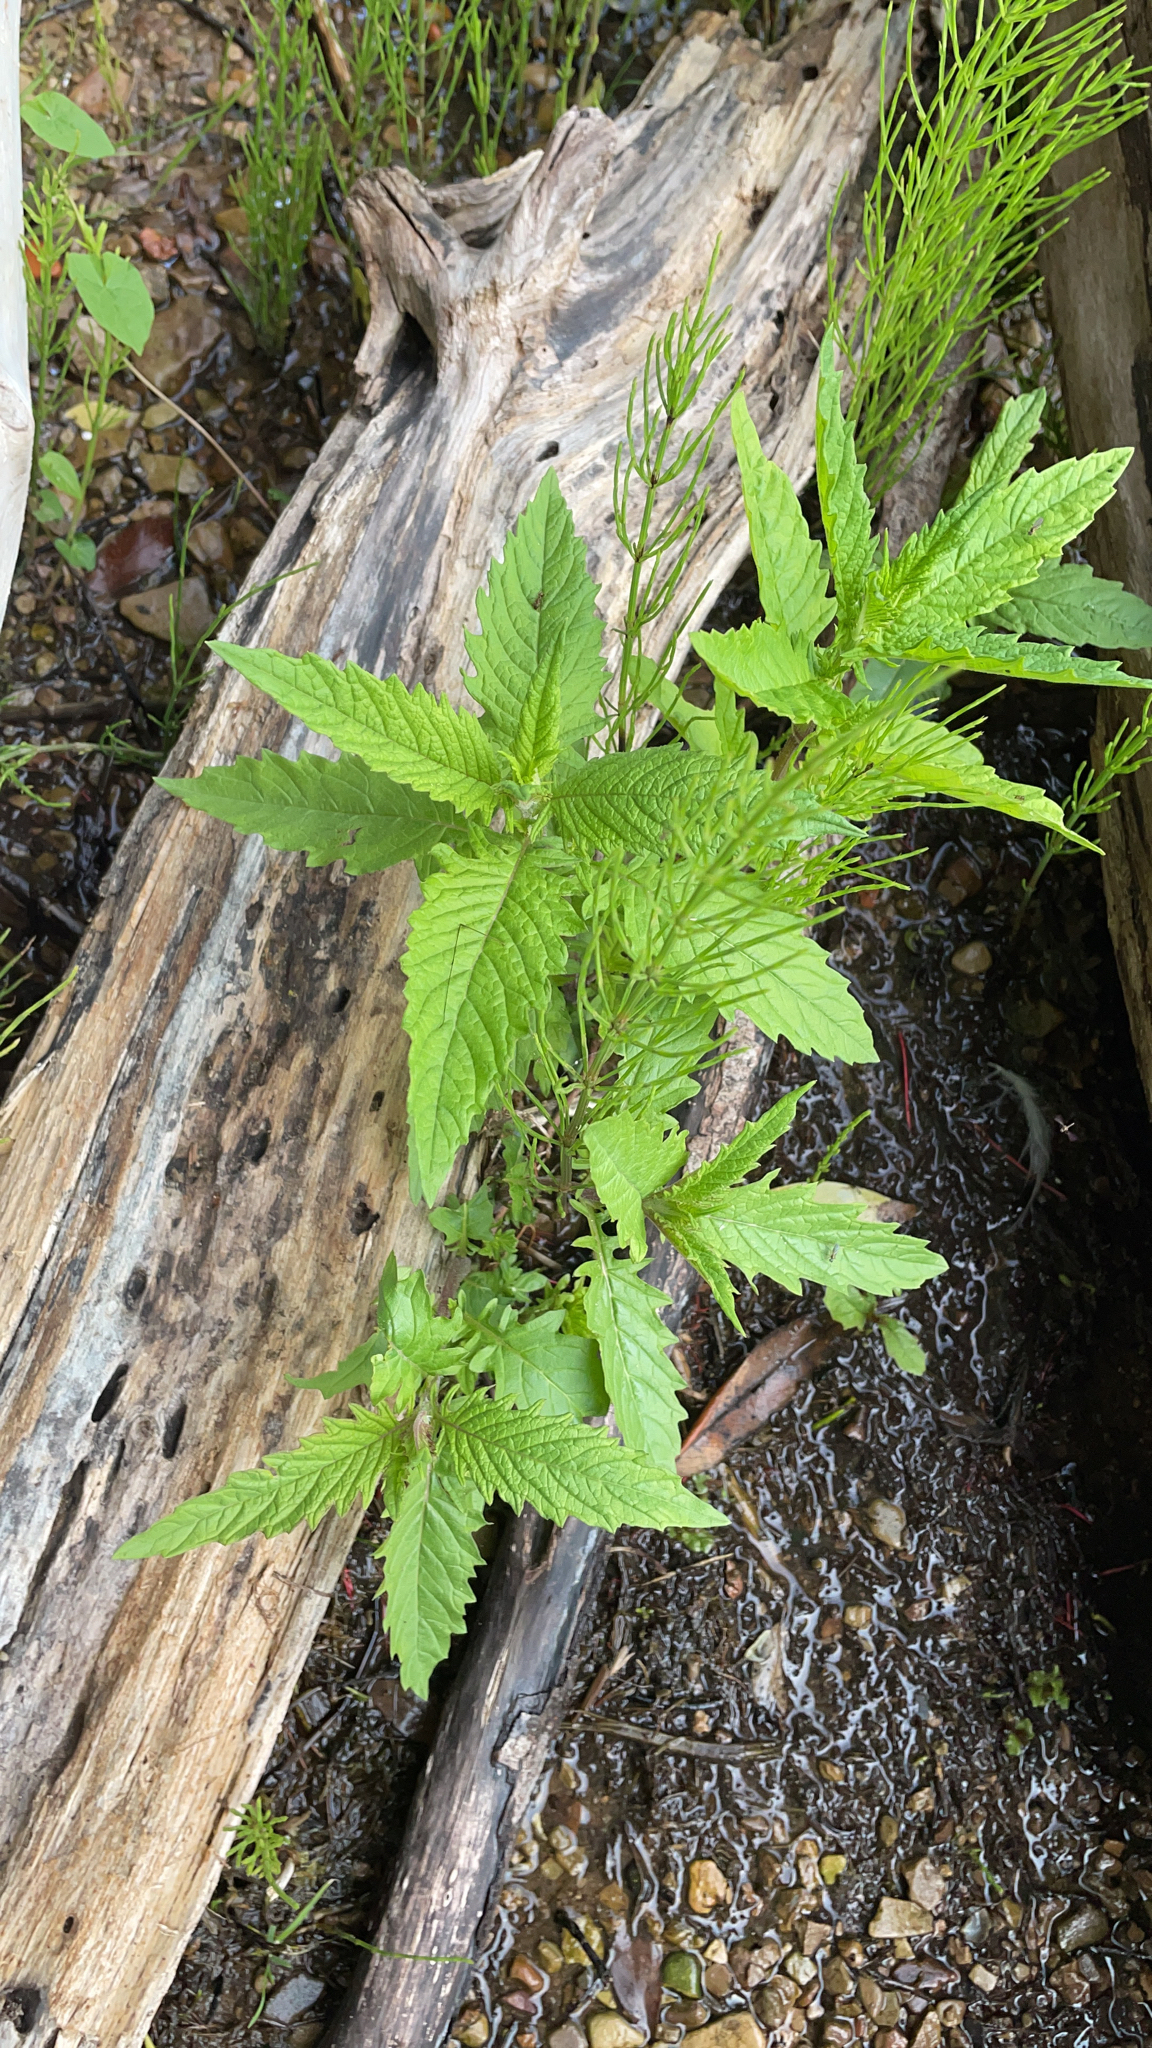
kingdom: Plantae
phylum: Tracheophyta
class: Magnoliopsida
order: Lamiales
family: Lamiaceae
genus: Lycopus
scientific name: Lycopus europaeus
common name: European bugleweed
